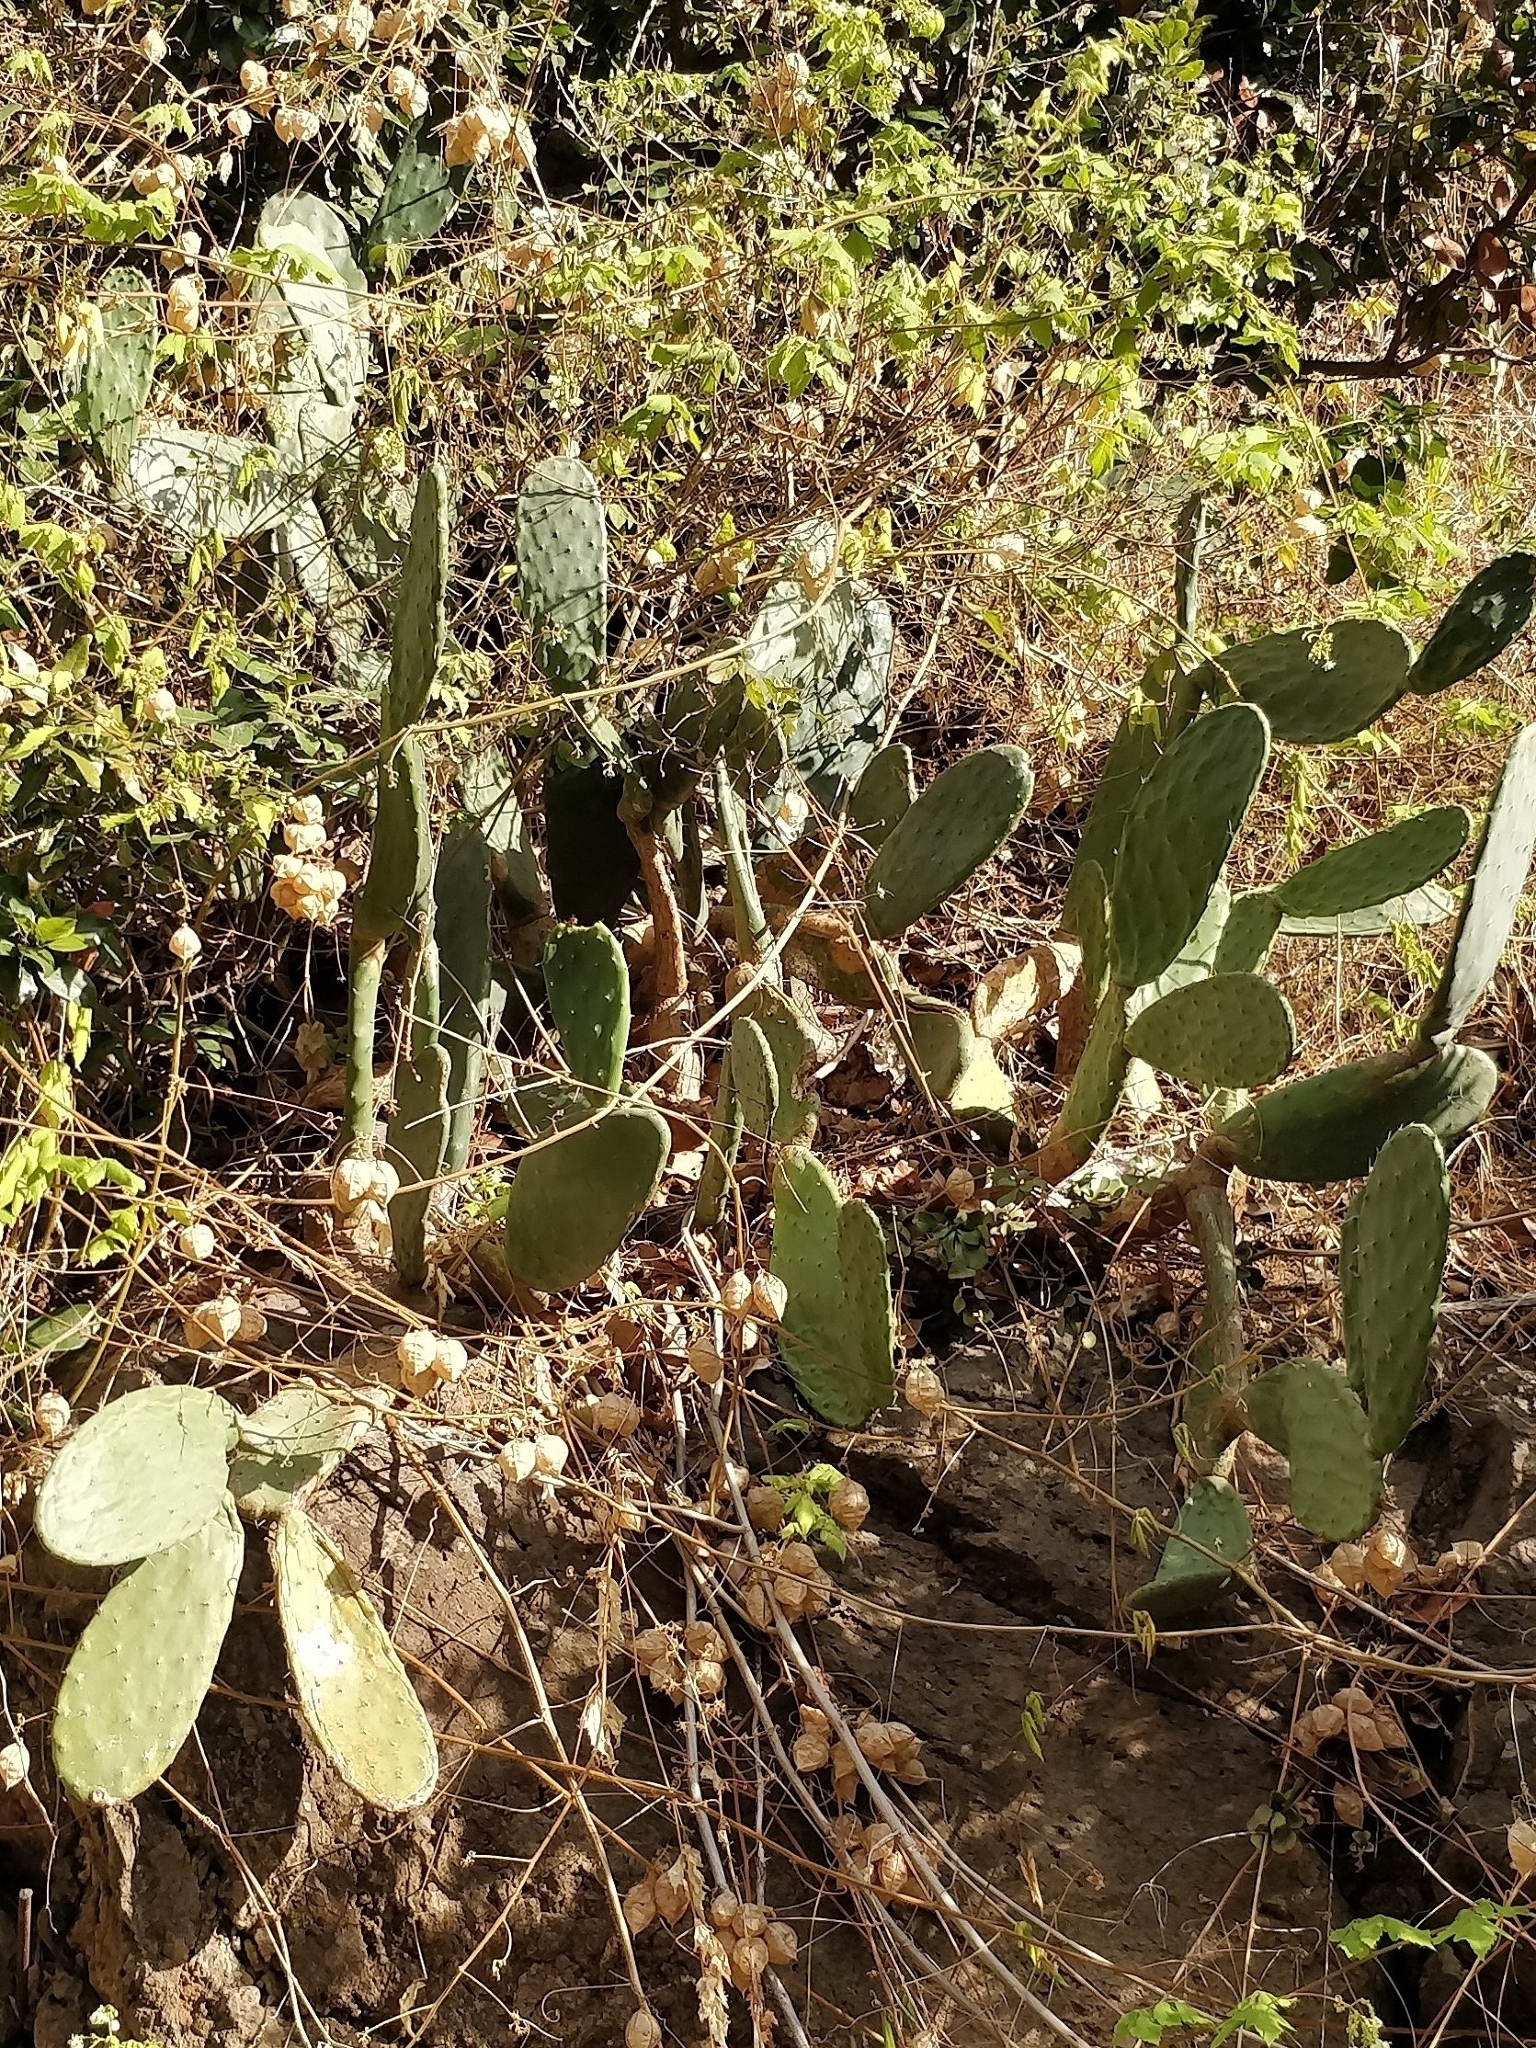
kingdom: Plantae
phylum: Tracheophyta
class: Magnoliopsida
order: Caryophyllales
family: Cactaceae
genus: Opuntia
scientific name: Opuntia ficus-indica
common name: Barbary fig
